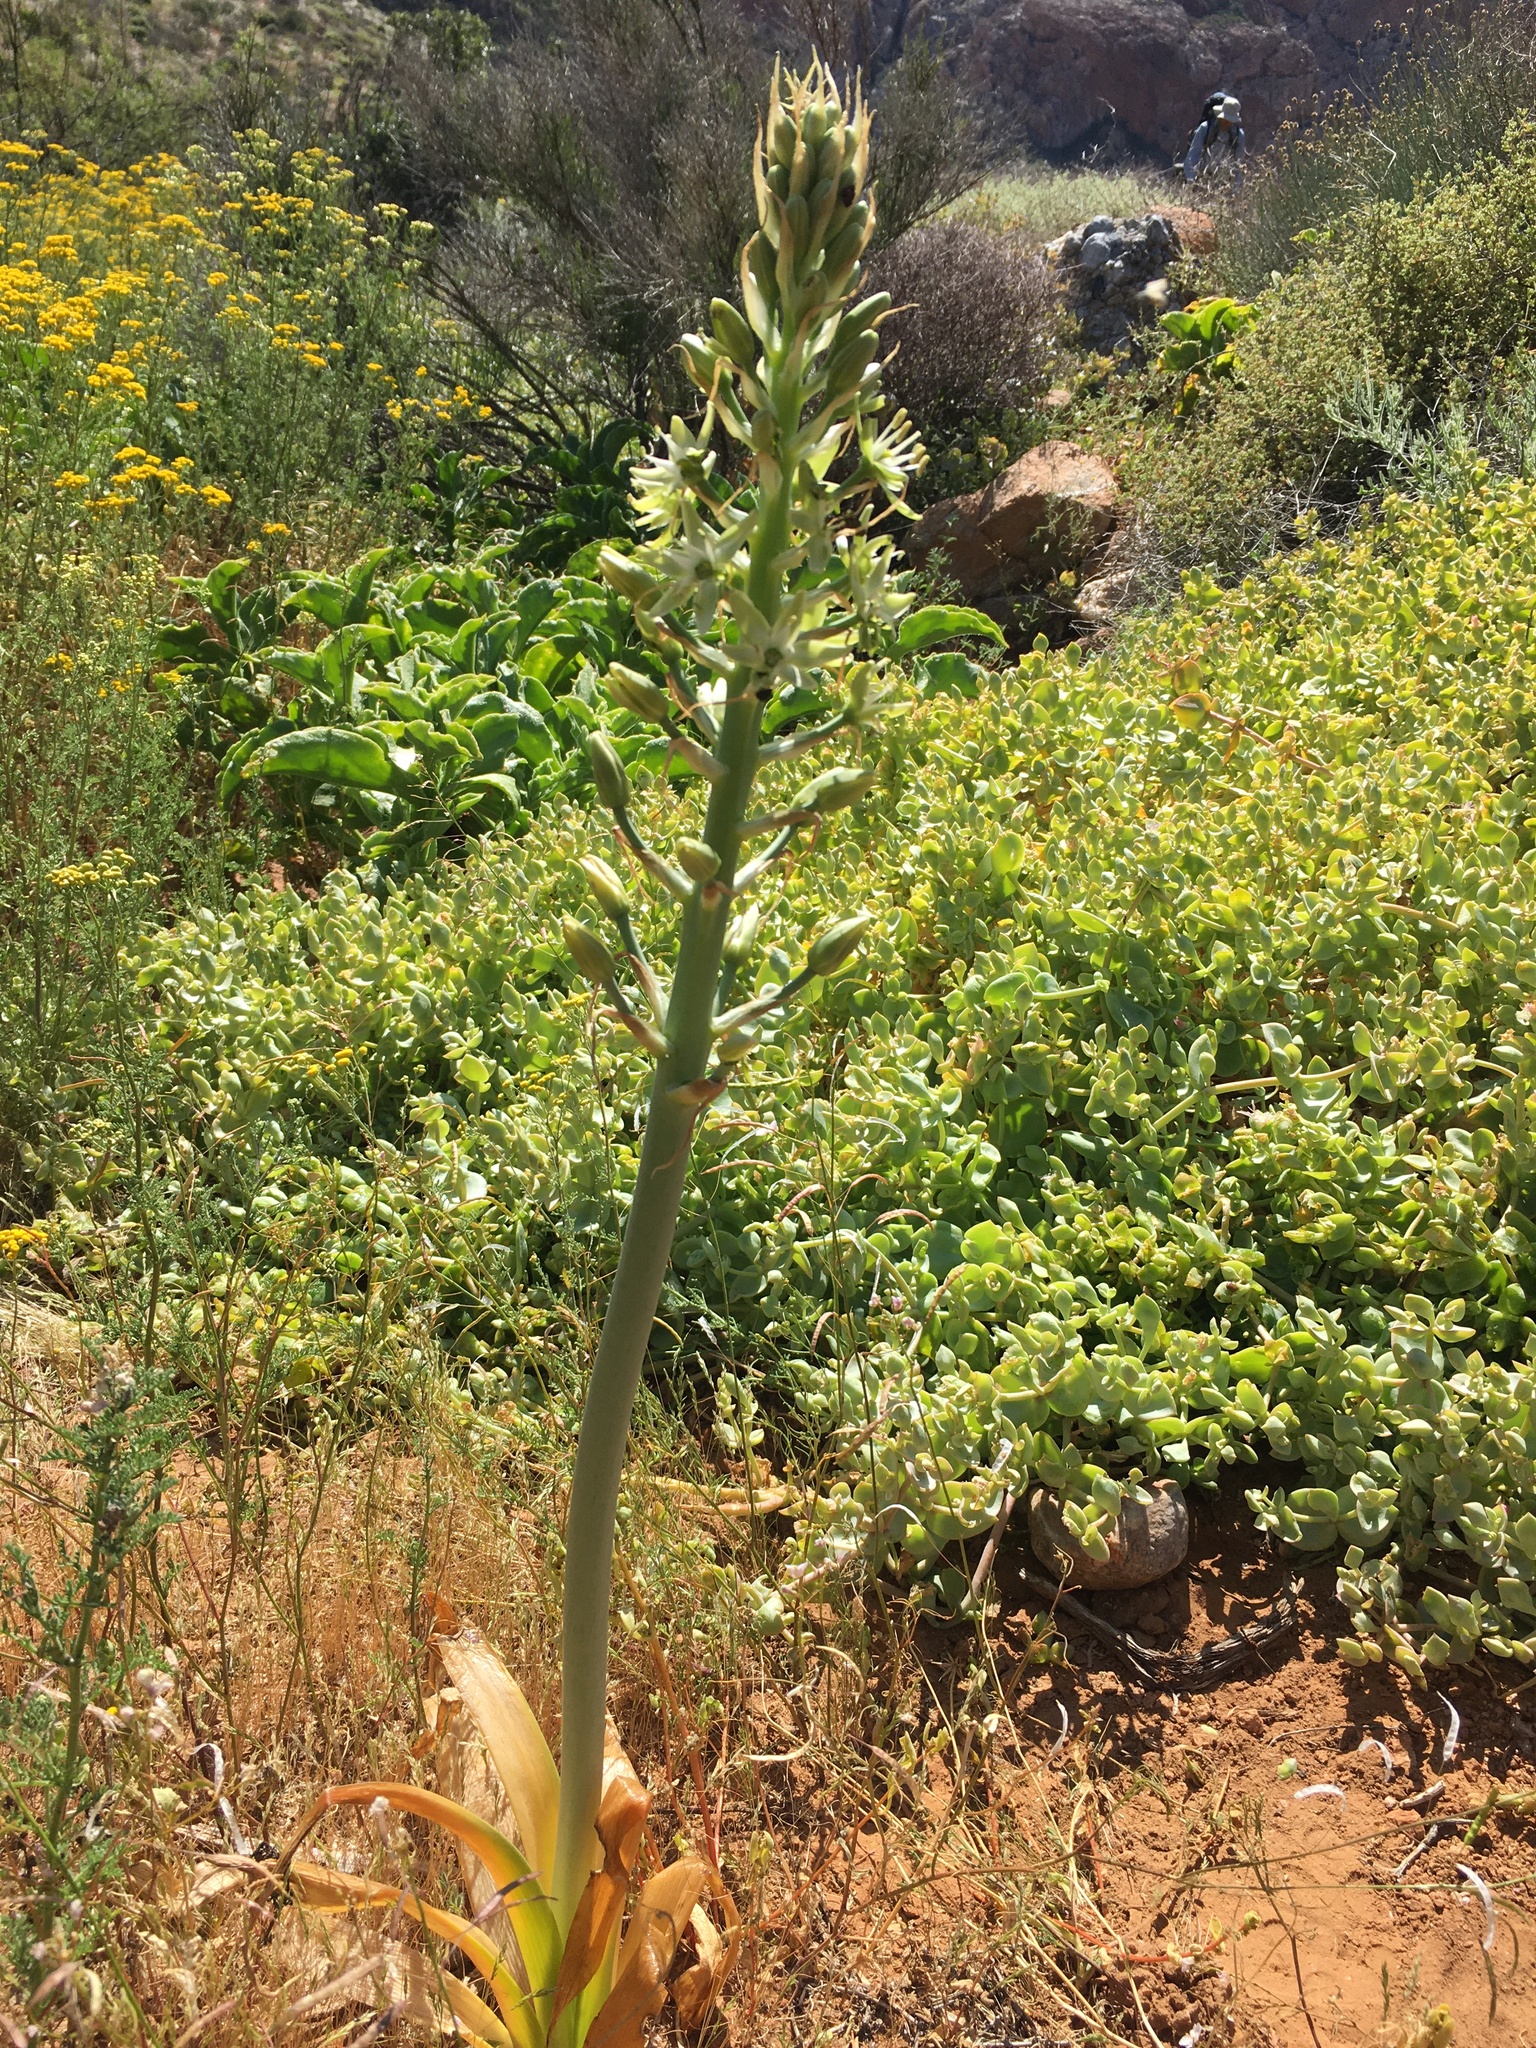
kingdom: Plantae
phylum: Tracheophyta
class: Liliopsida
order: Asparagales
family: Asparagaceae
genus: Ornithogalum
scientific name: Ornithogalum xanthochlorum
